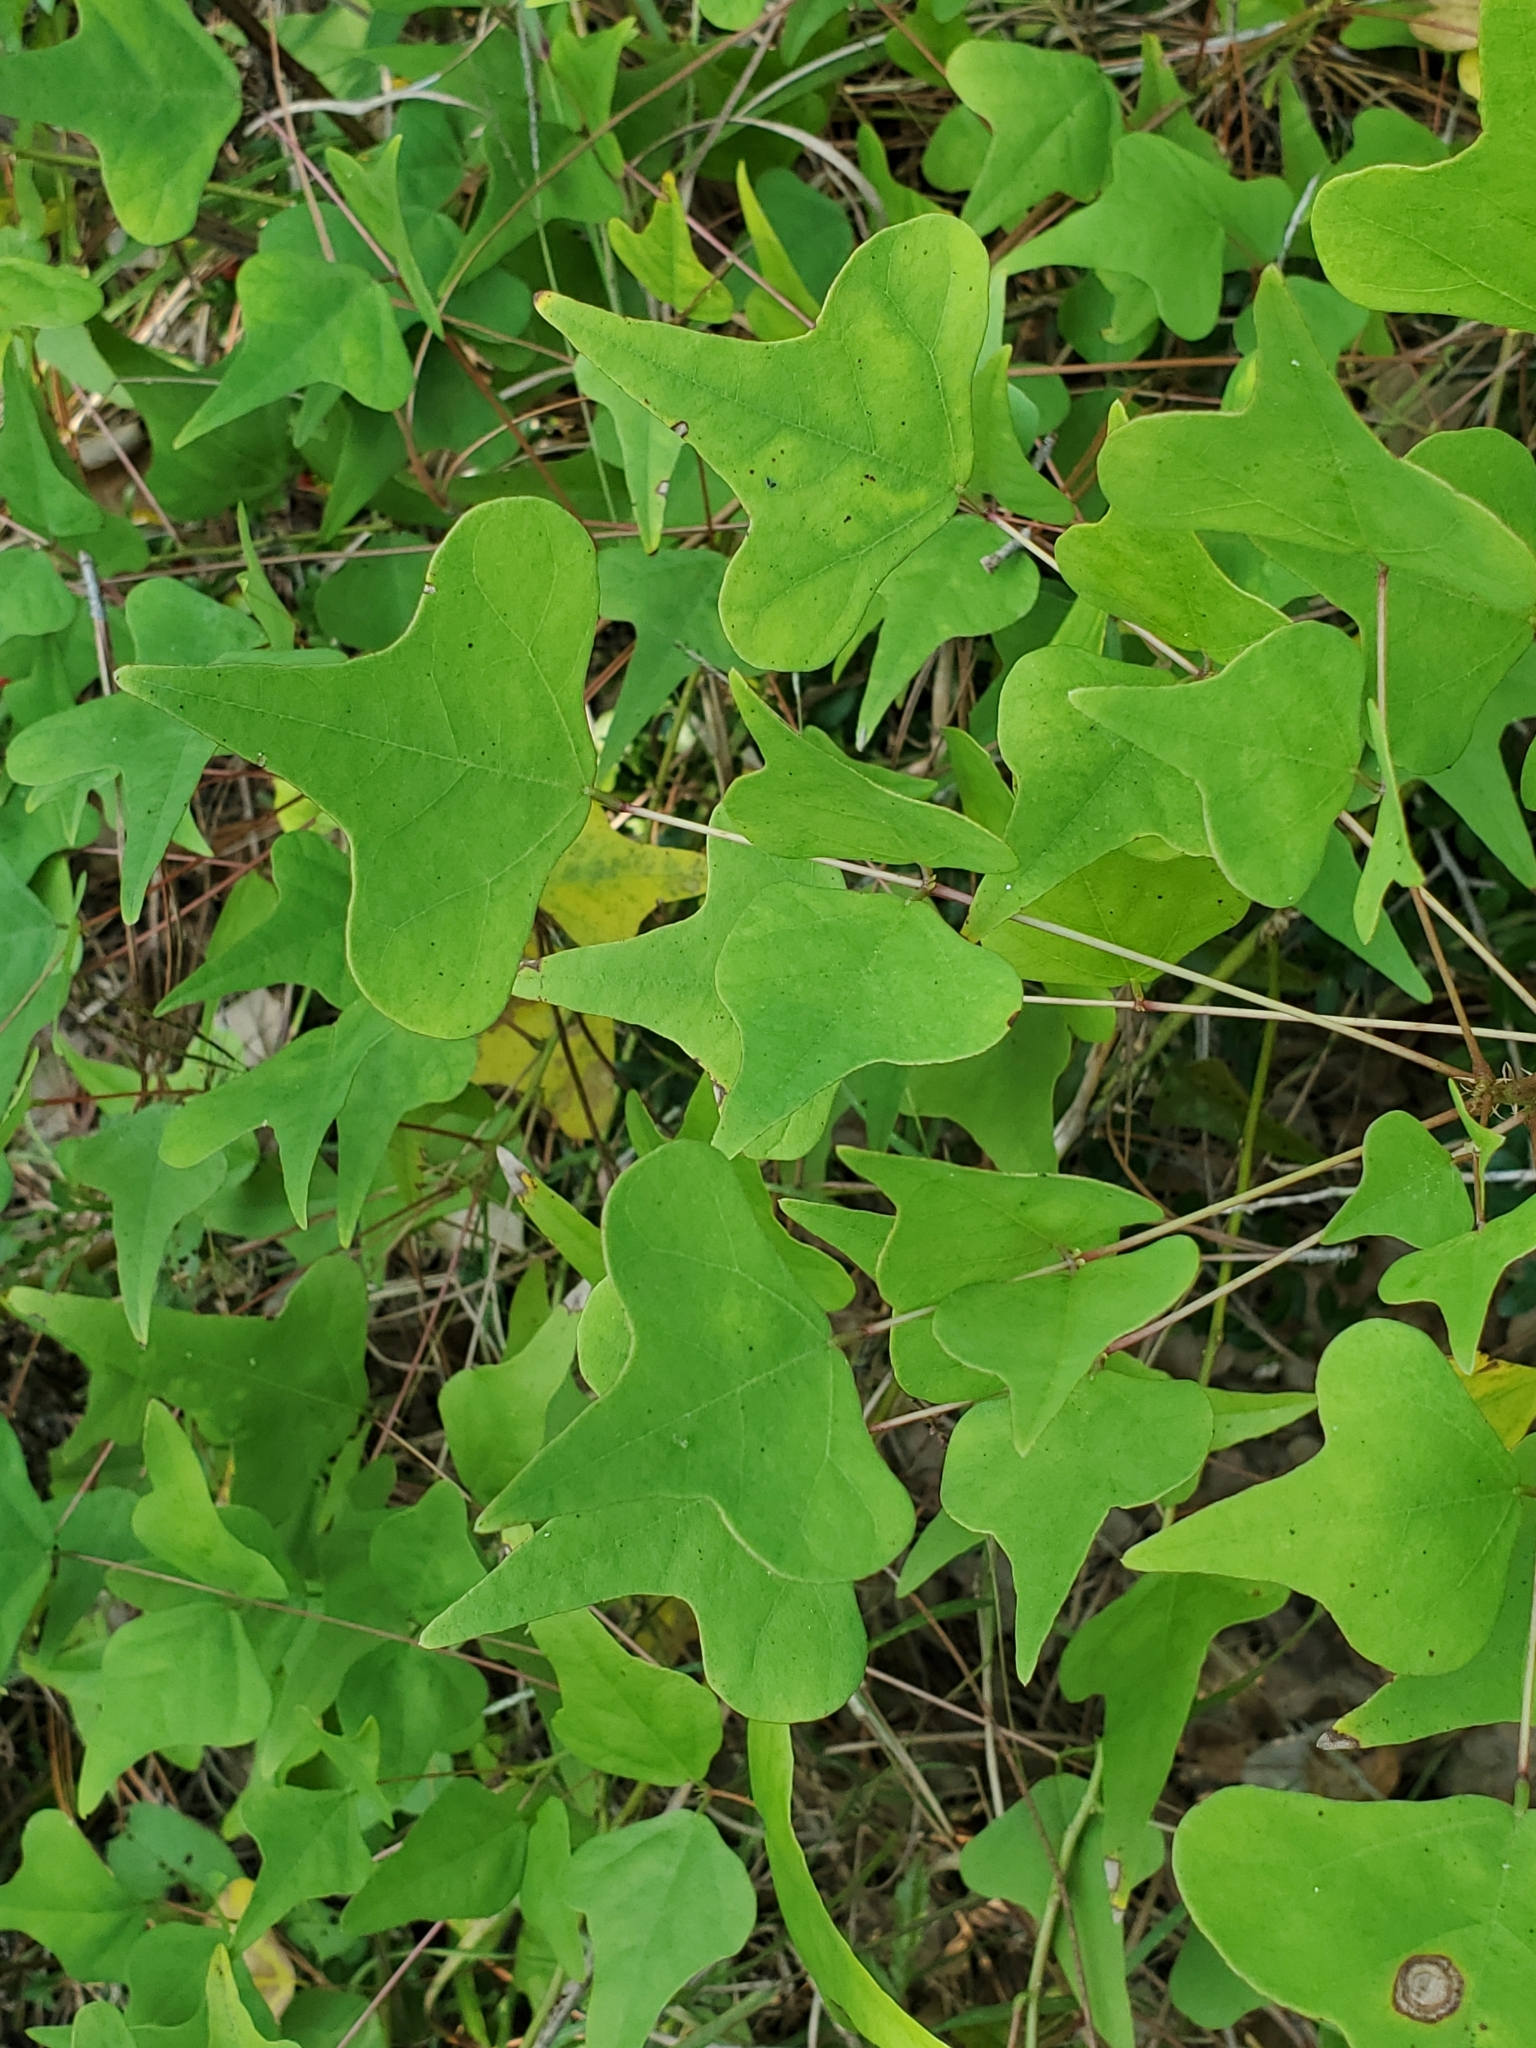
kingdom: Plantae
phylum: Tracheophyta
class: Magnoliopsida
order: Fabales
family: Fabaceae
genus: Erythrina
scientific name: Erythrina herbacea
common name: Coral-bean
